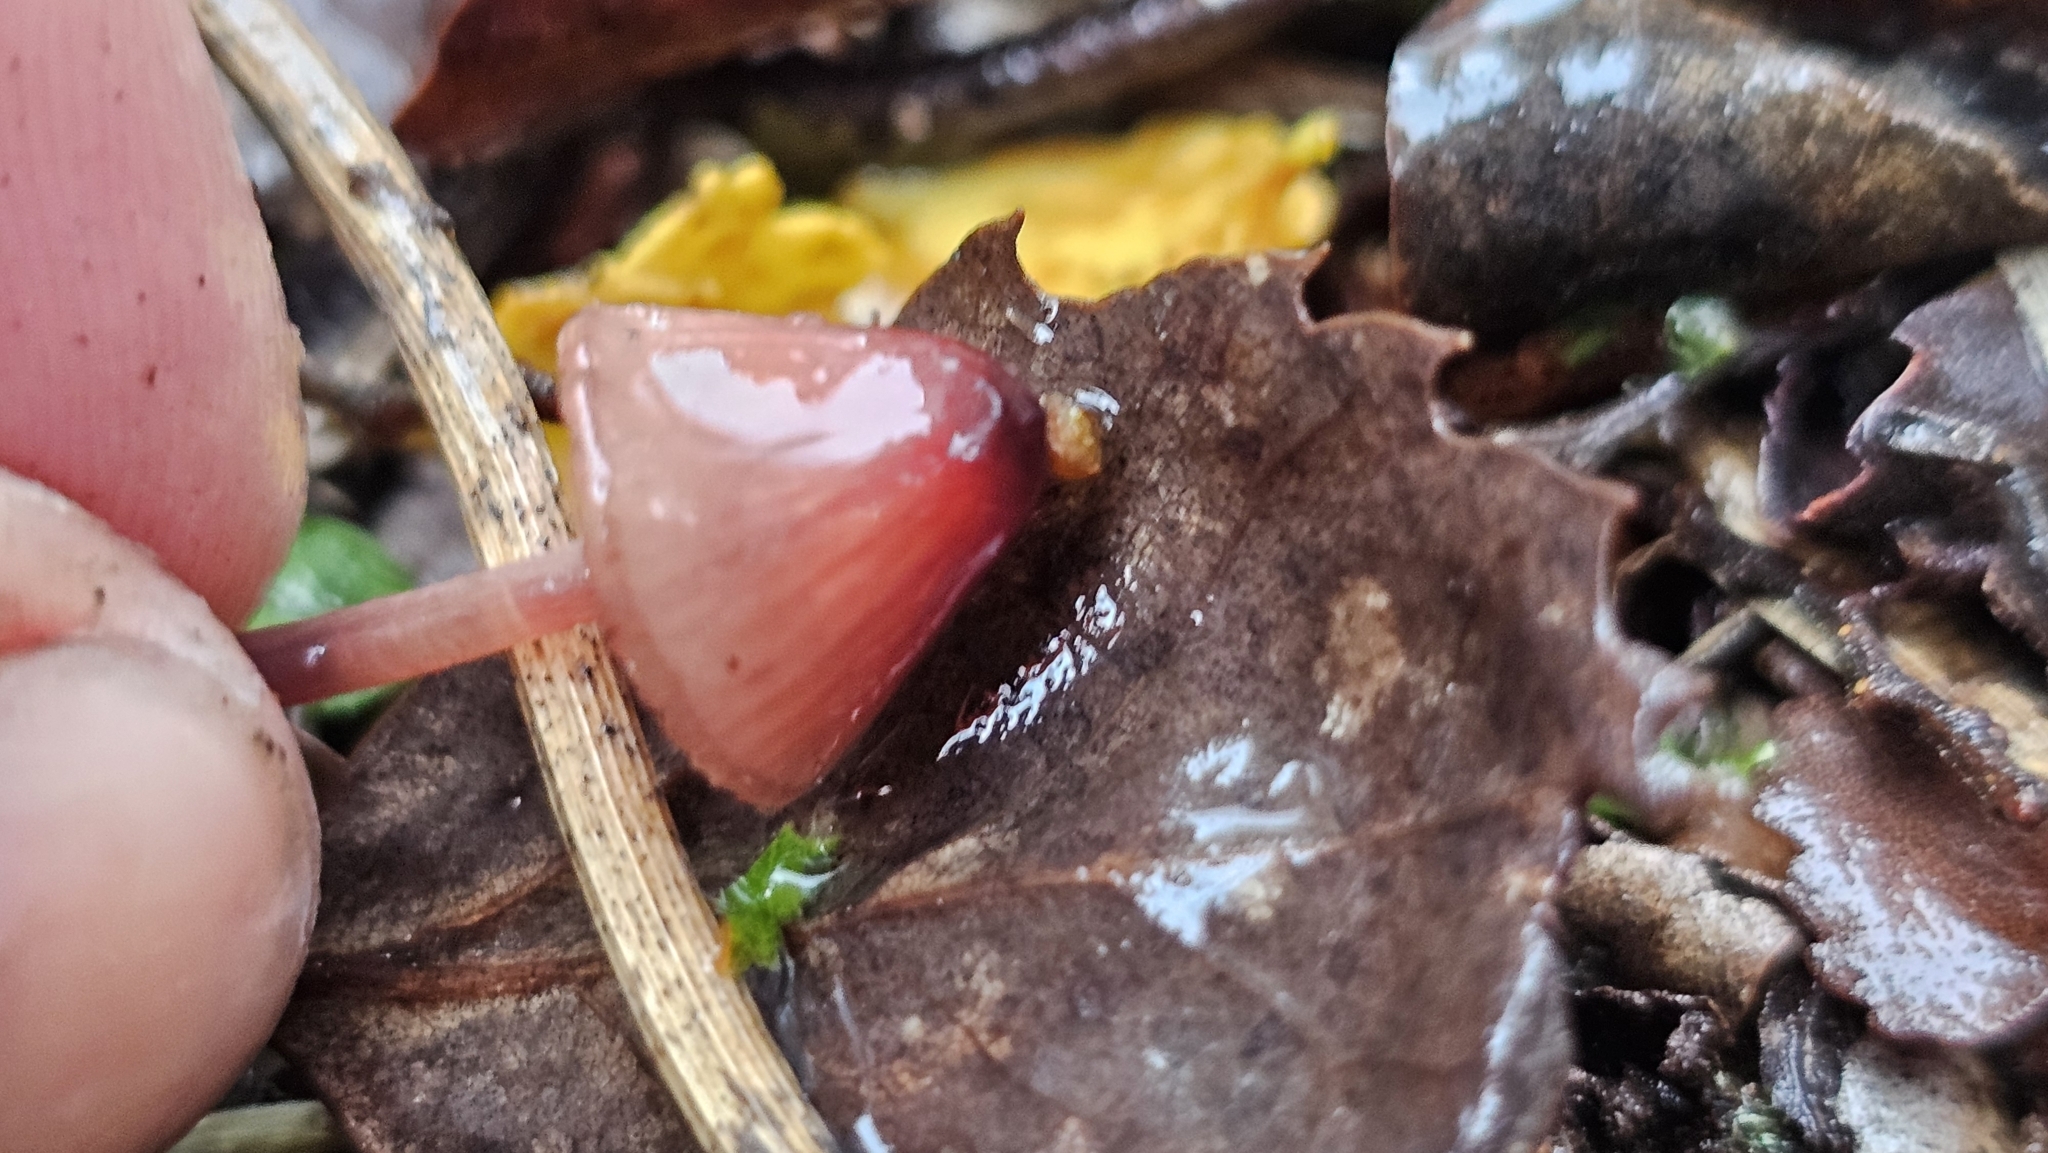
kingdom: Fungi
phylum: Basidiomycota
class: Agaricomycetes
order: Agaricales
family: Mycenaceae
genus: Mycena
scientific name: Mycena mariae
